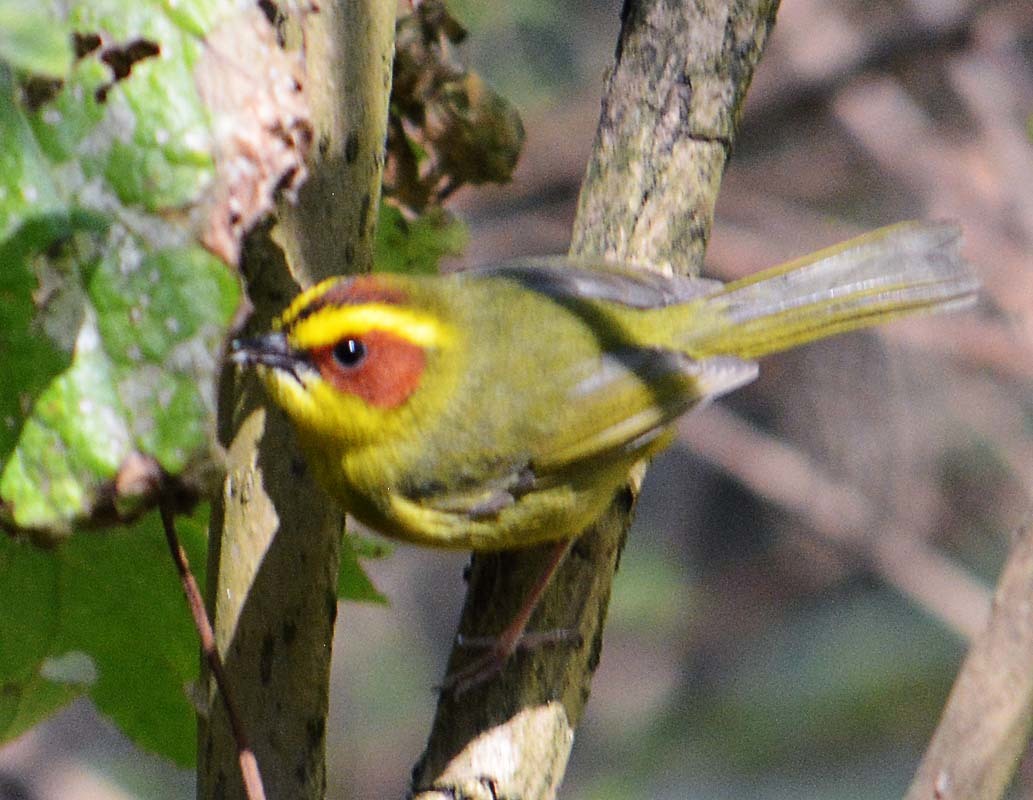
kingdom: Animalia
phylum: Chordata
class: Aves
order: Passeriformes
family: Parulidae
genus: Basileuterus
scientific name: Basileuterus belli
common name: Golden-browed warbler
